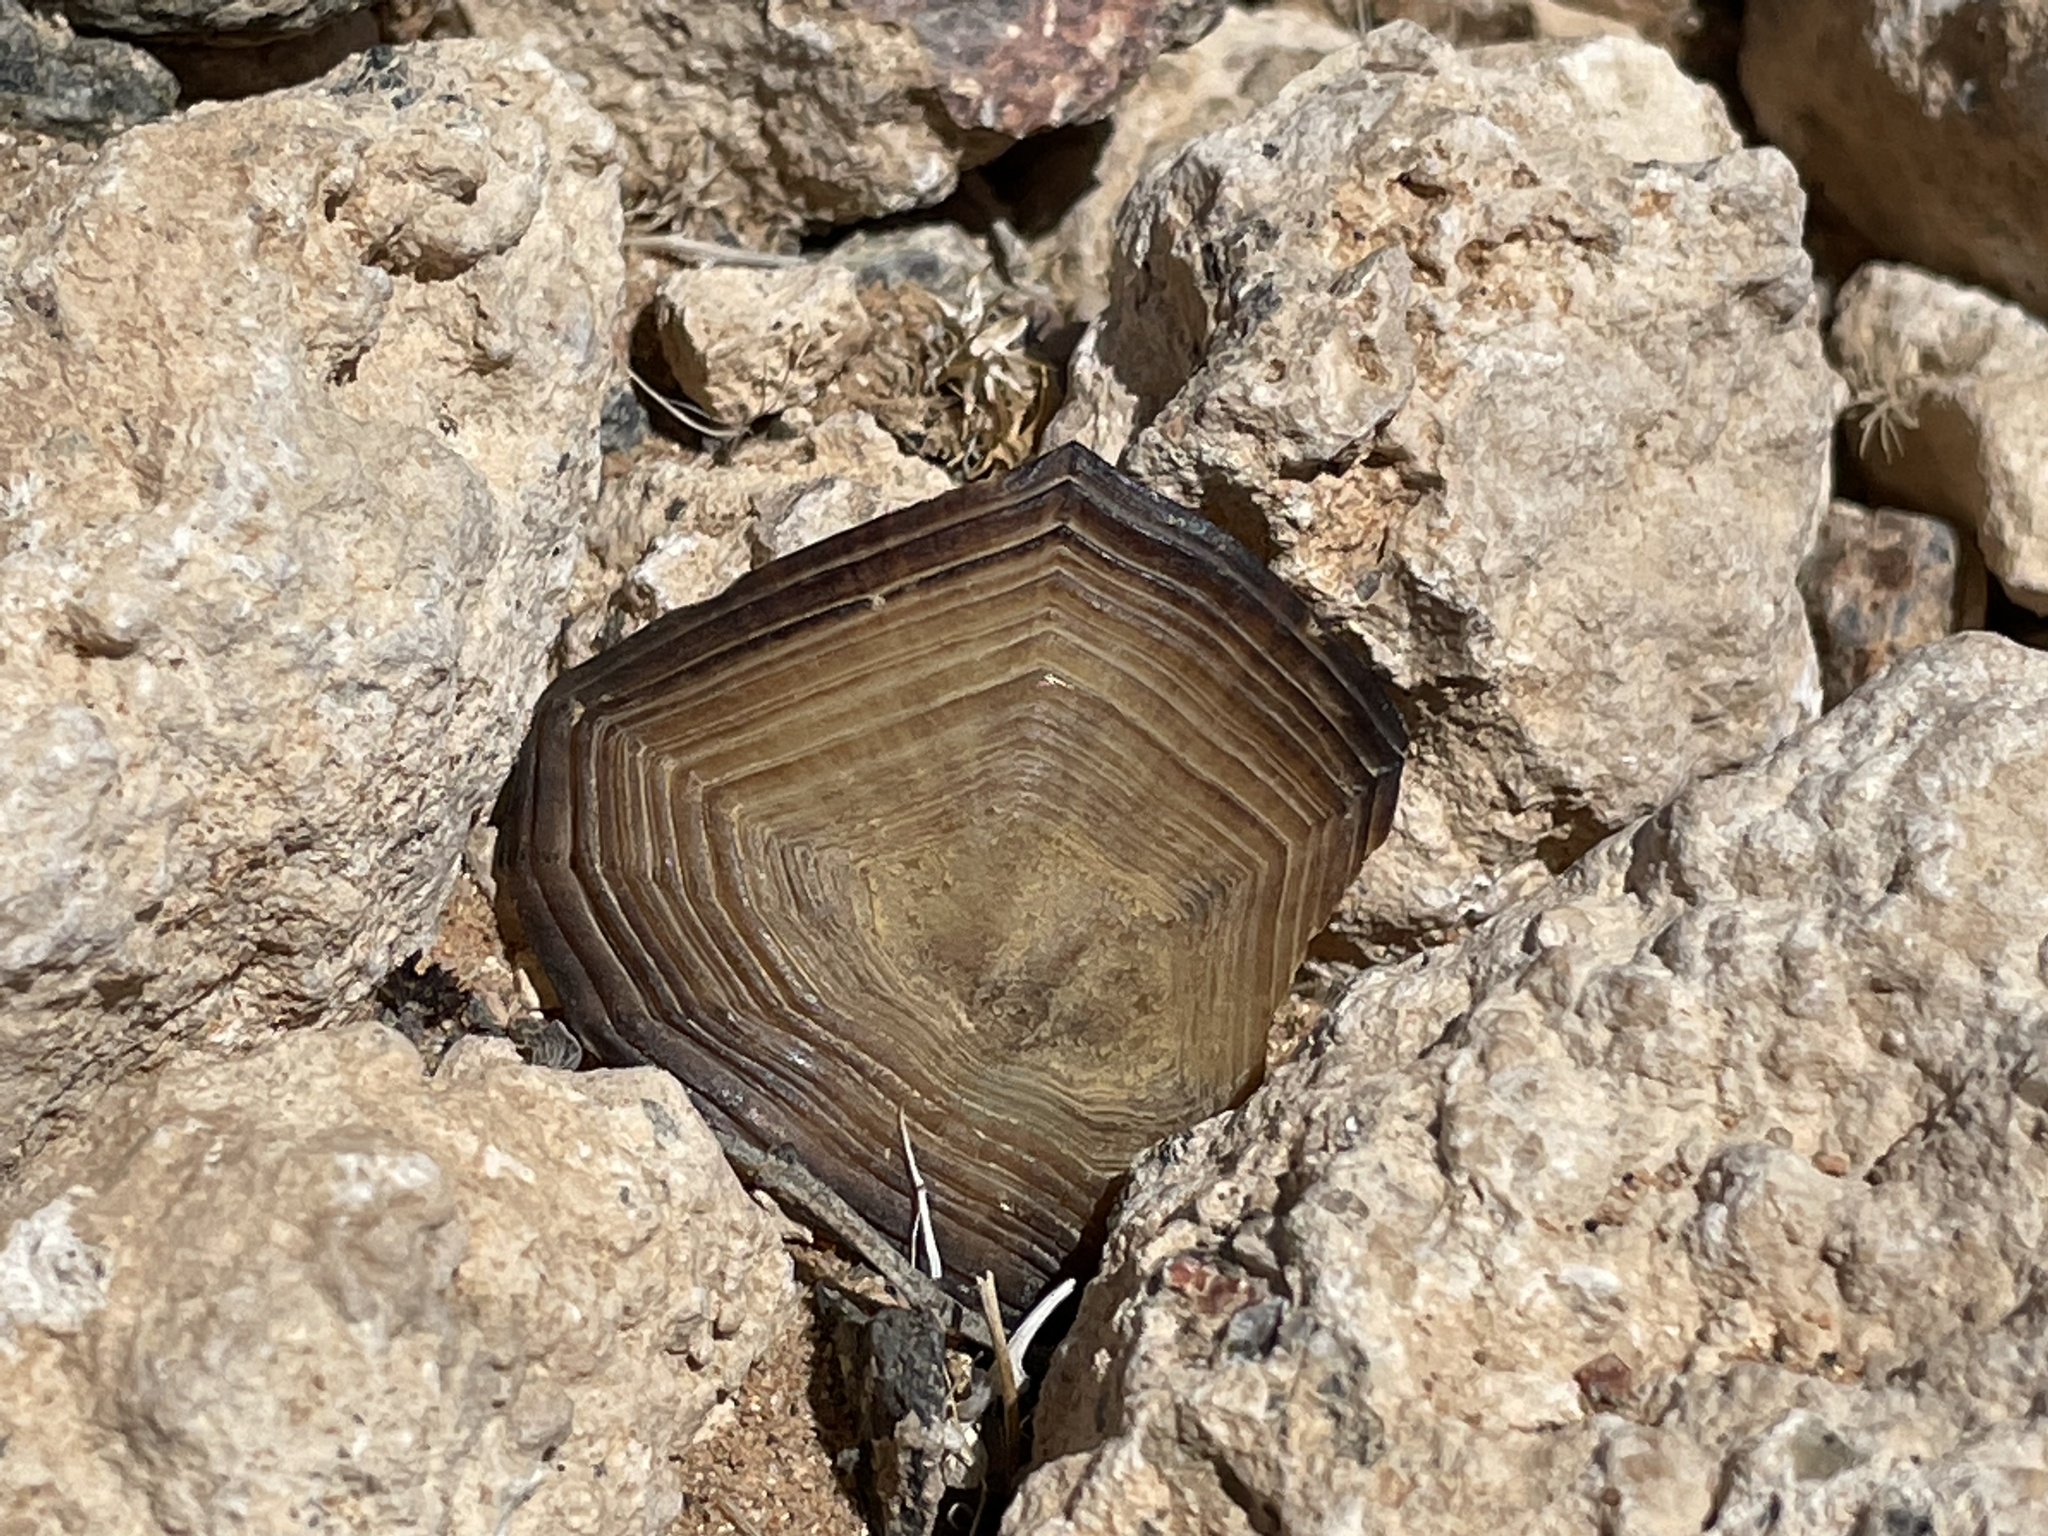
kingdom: Animalia
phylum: Chordata
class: Testudines
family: Testudinidae
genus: Gopherus
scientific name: Gopherus agassizii
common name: Mojave desert tortoise
